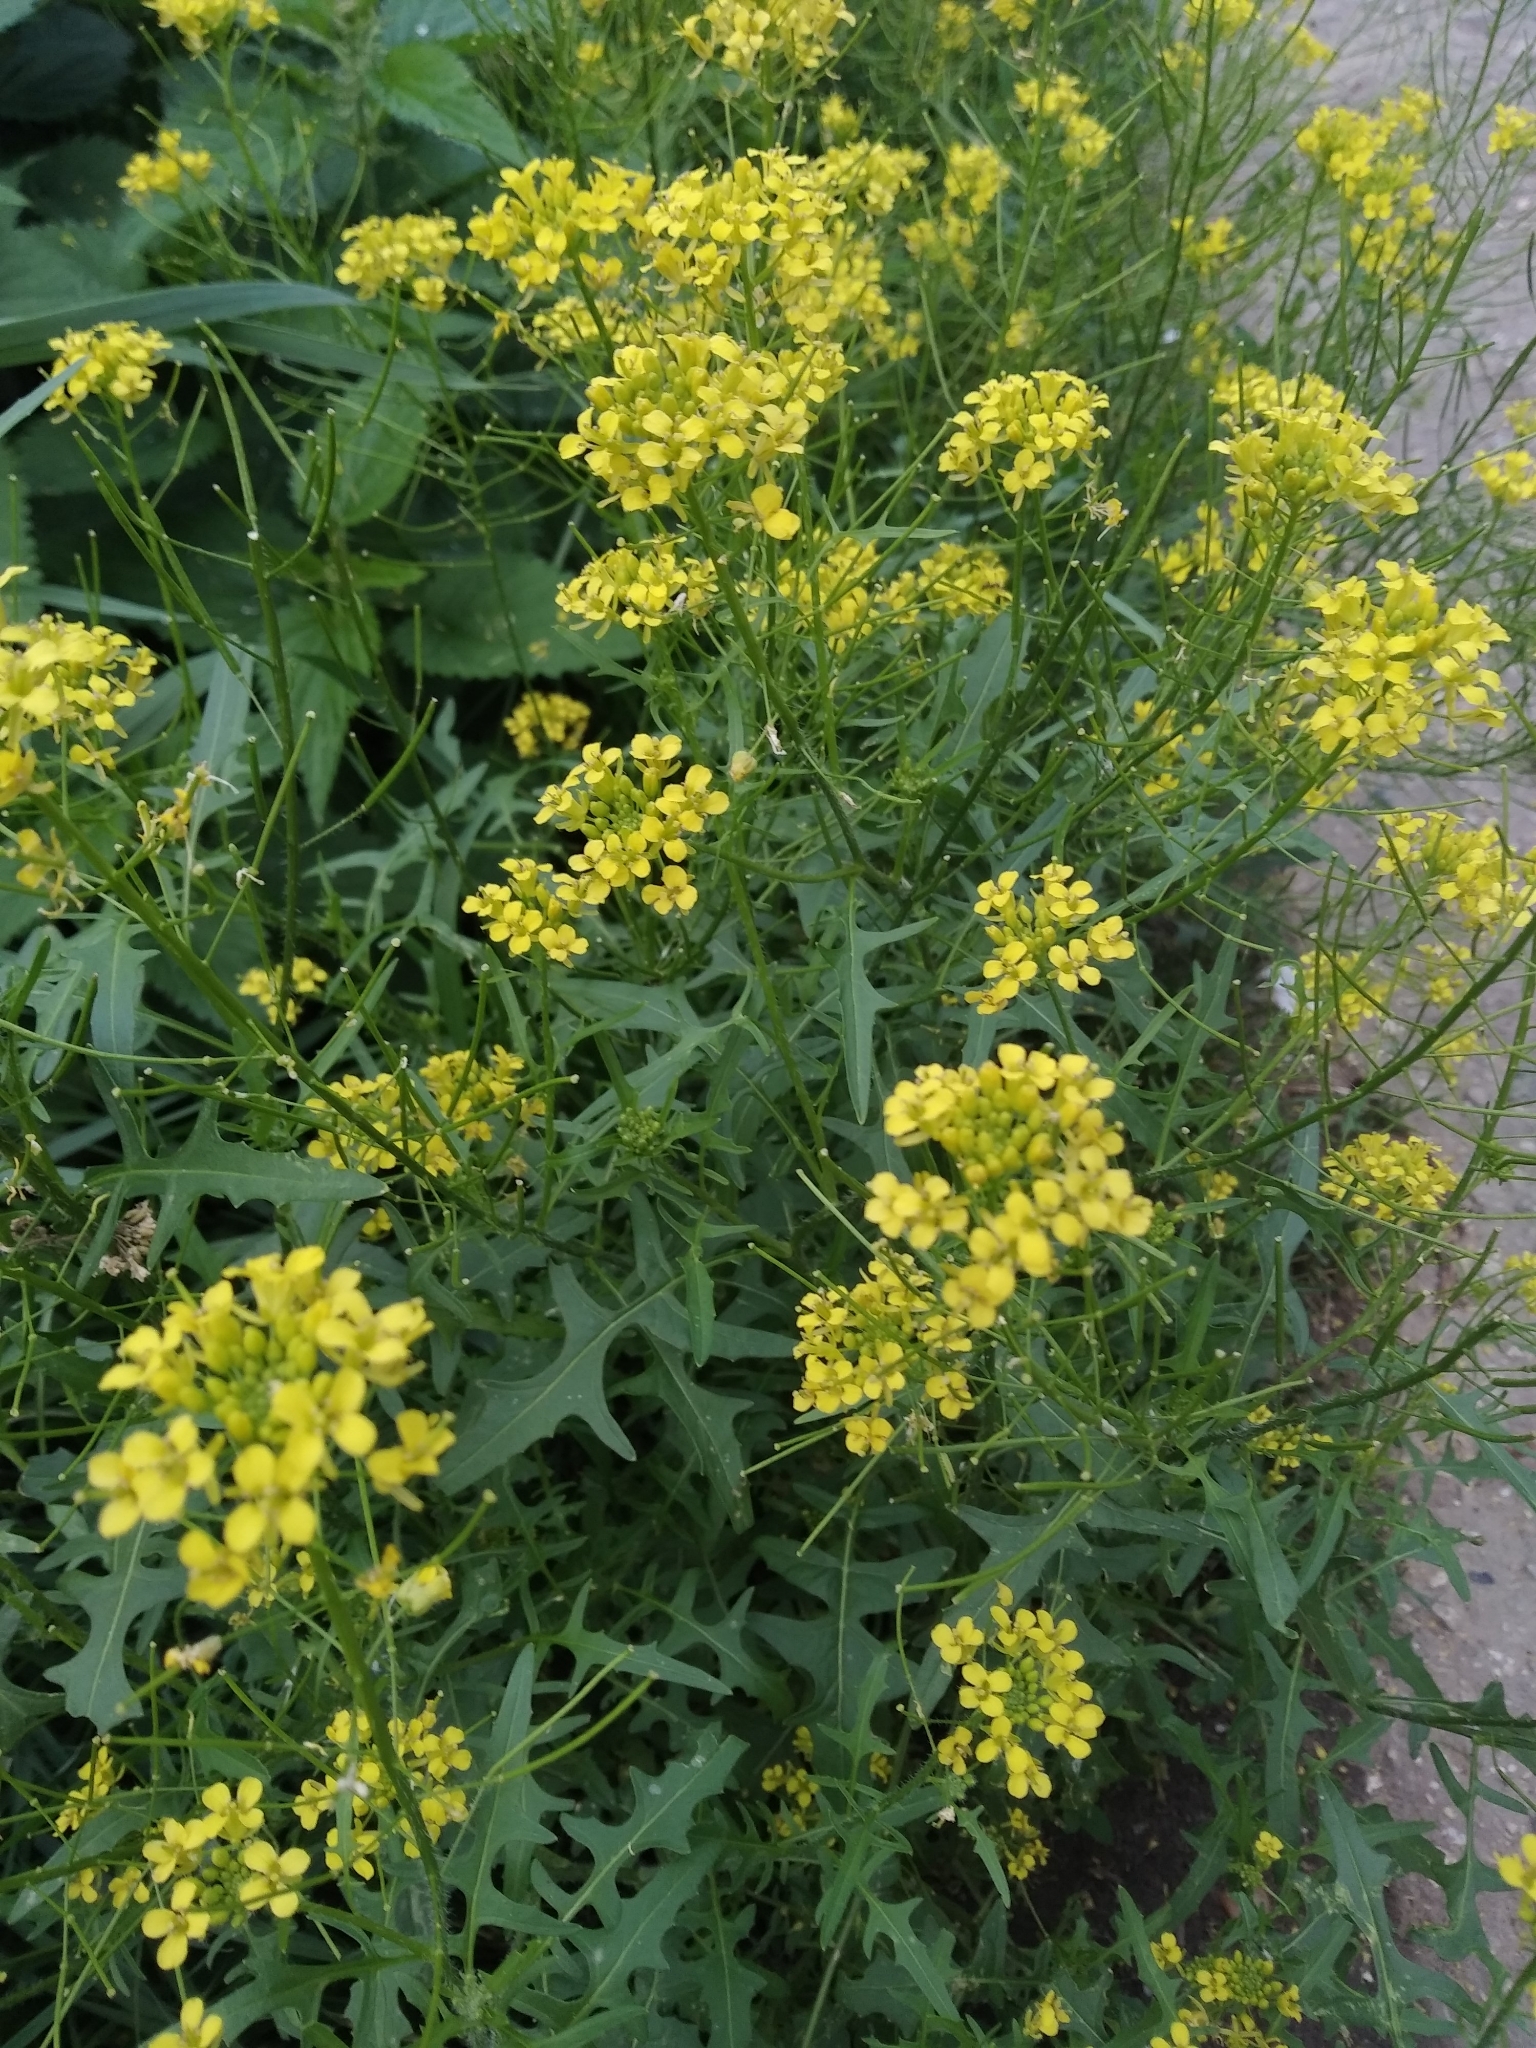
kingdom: Plantae
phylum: Tracheophyta
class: Magnoliopsida
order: Brassicales
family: Brassicaceae
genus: Sisymbrium
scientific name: Sisymbrium loeselii
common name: False london-rocket
